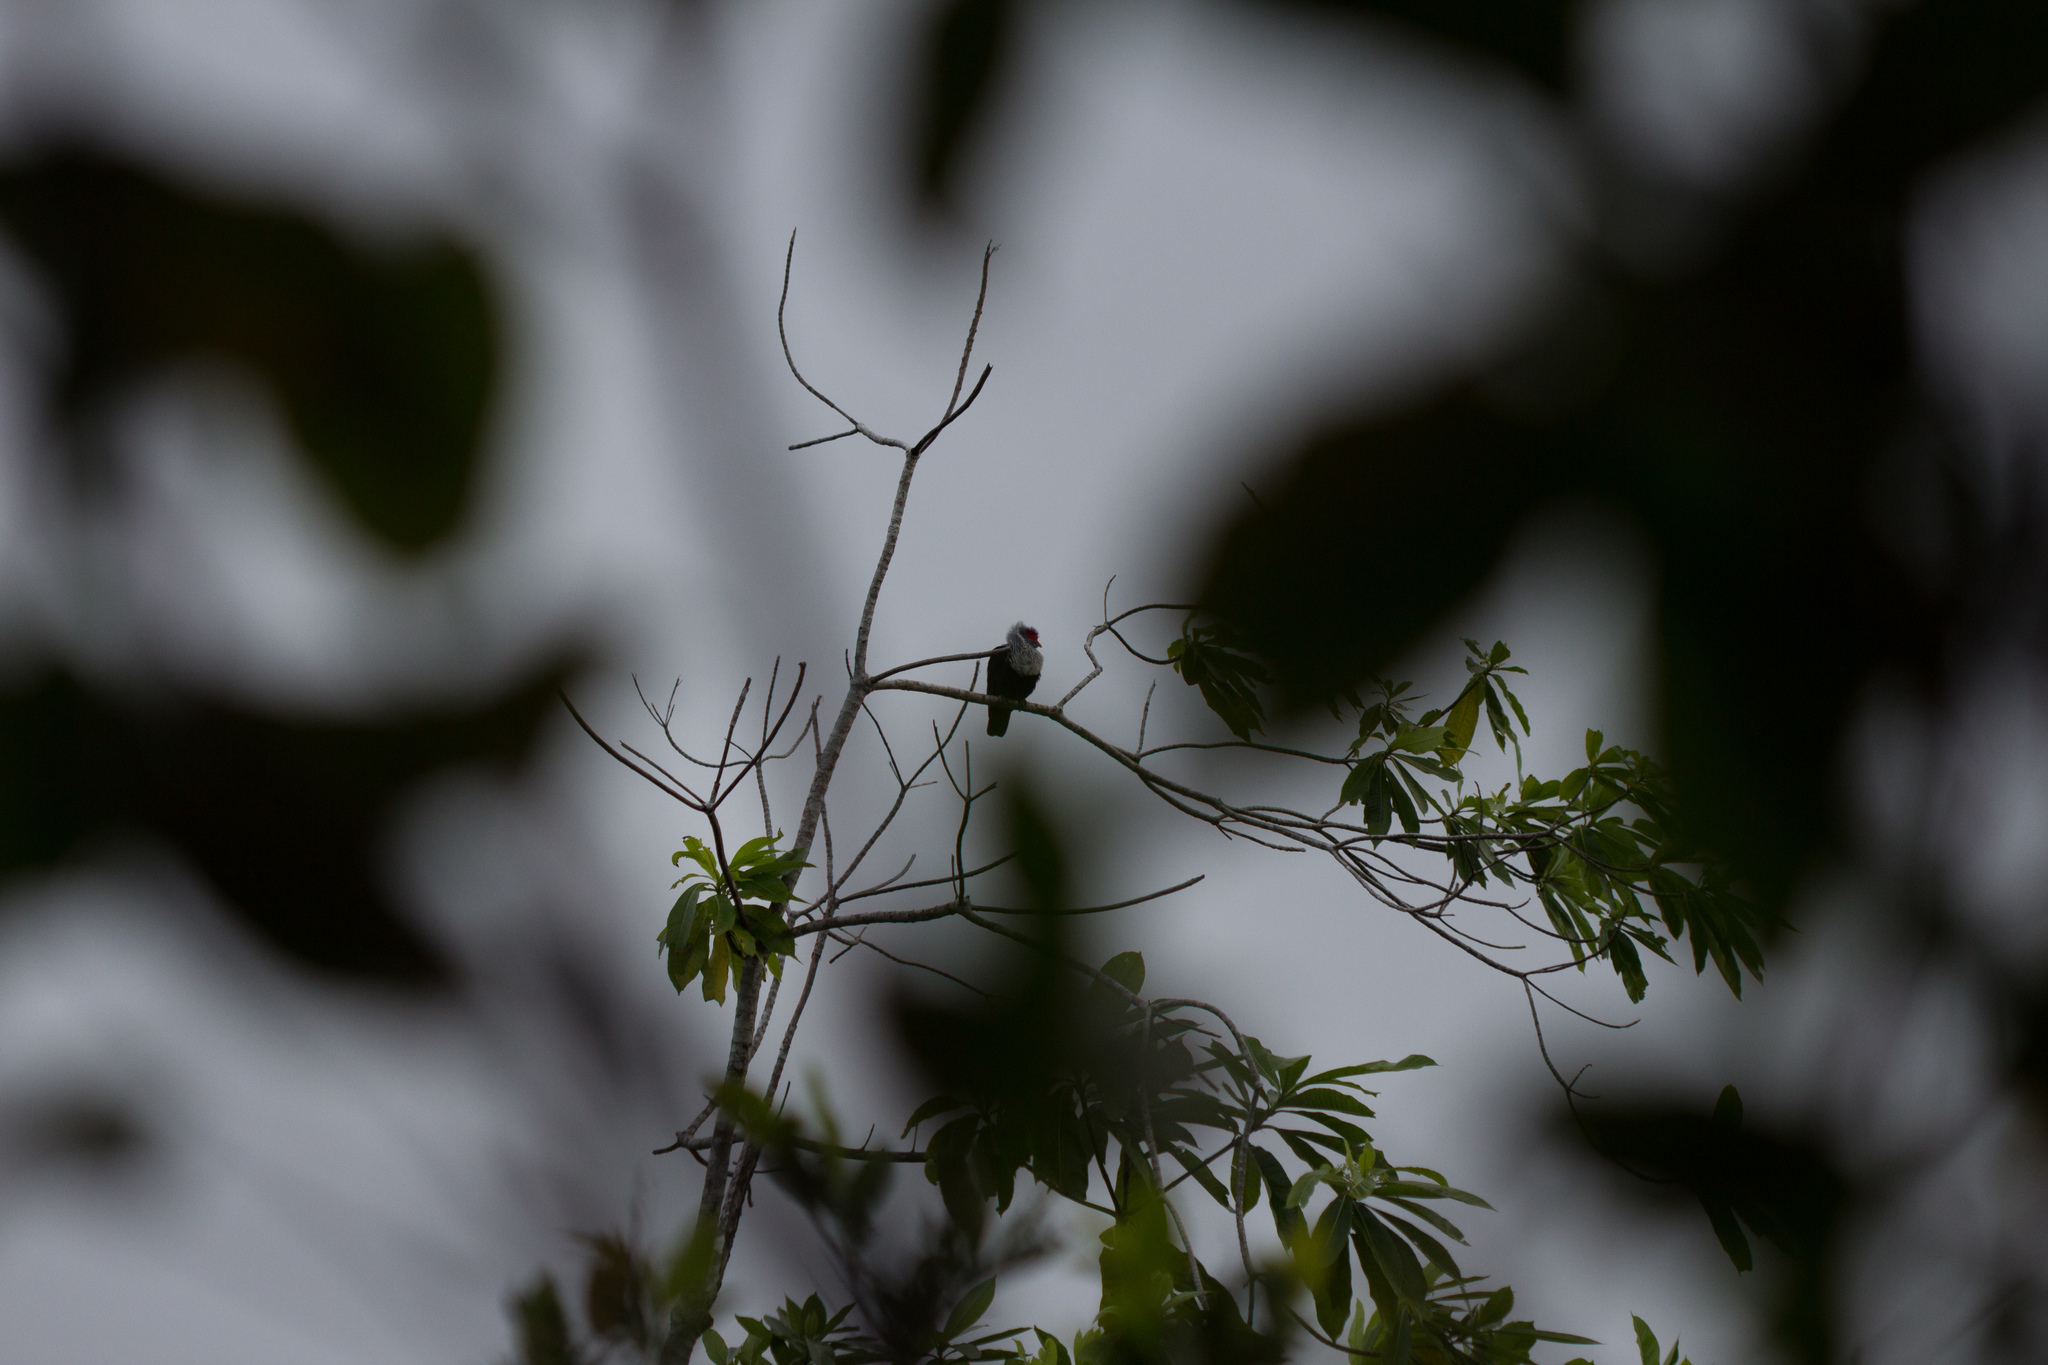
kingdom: Animalia
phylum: Chordata
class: Aves
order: Columbiformes
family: Columbidae
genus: Alectroenas
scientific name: Alectroenas pulcherrimus
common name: Seychelles blue pigeon
